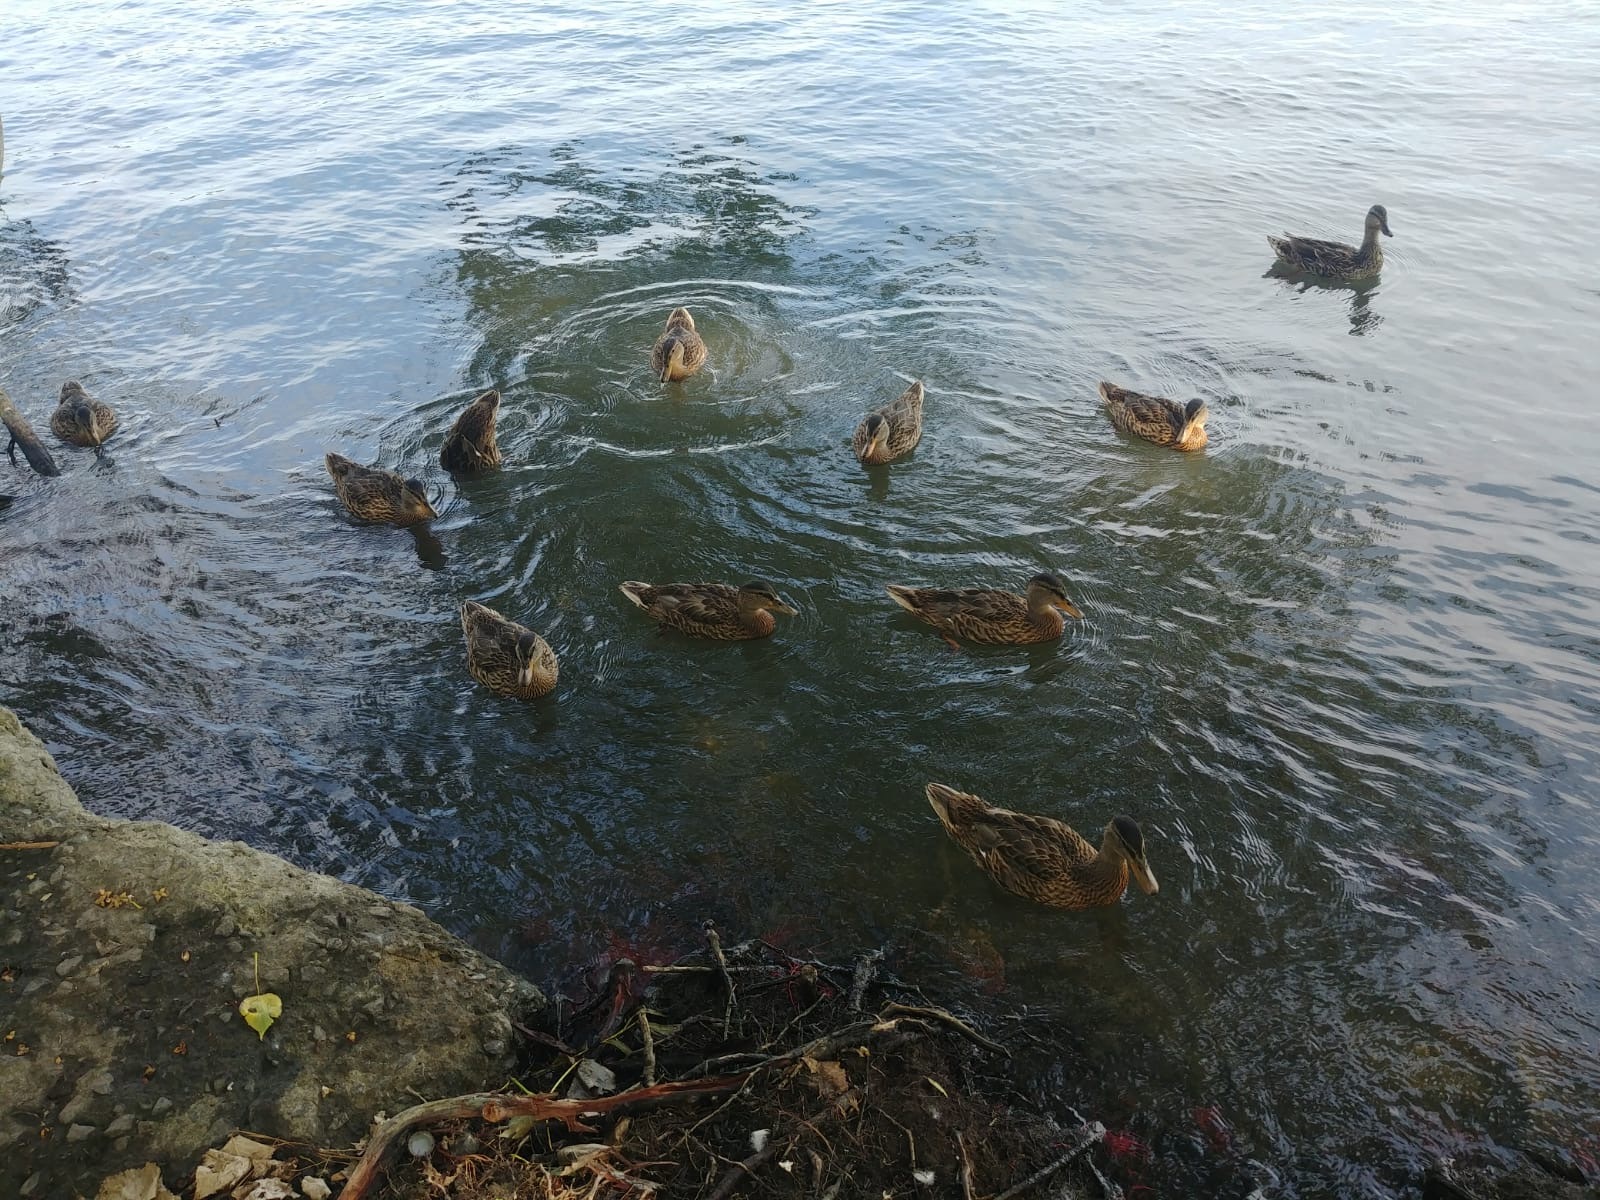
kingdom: Animalia
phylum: Chordata
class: Aves
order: Anseriformes
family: Anatidae
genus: Anas
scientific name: Anas platyrhynchos
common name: Mallard
